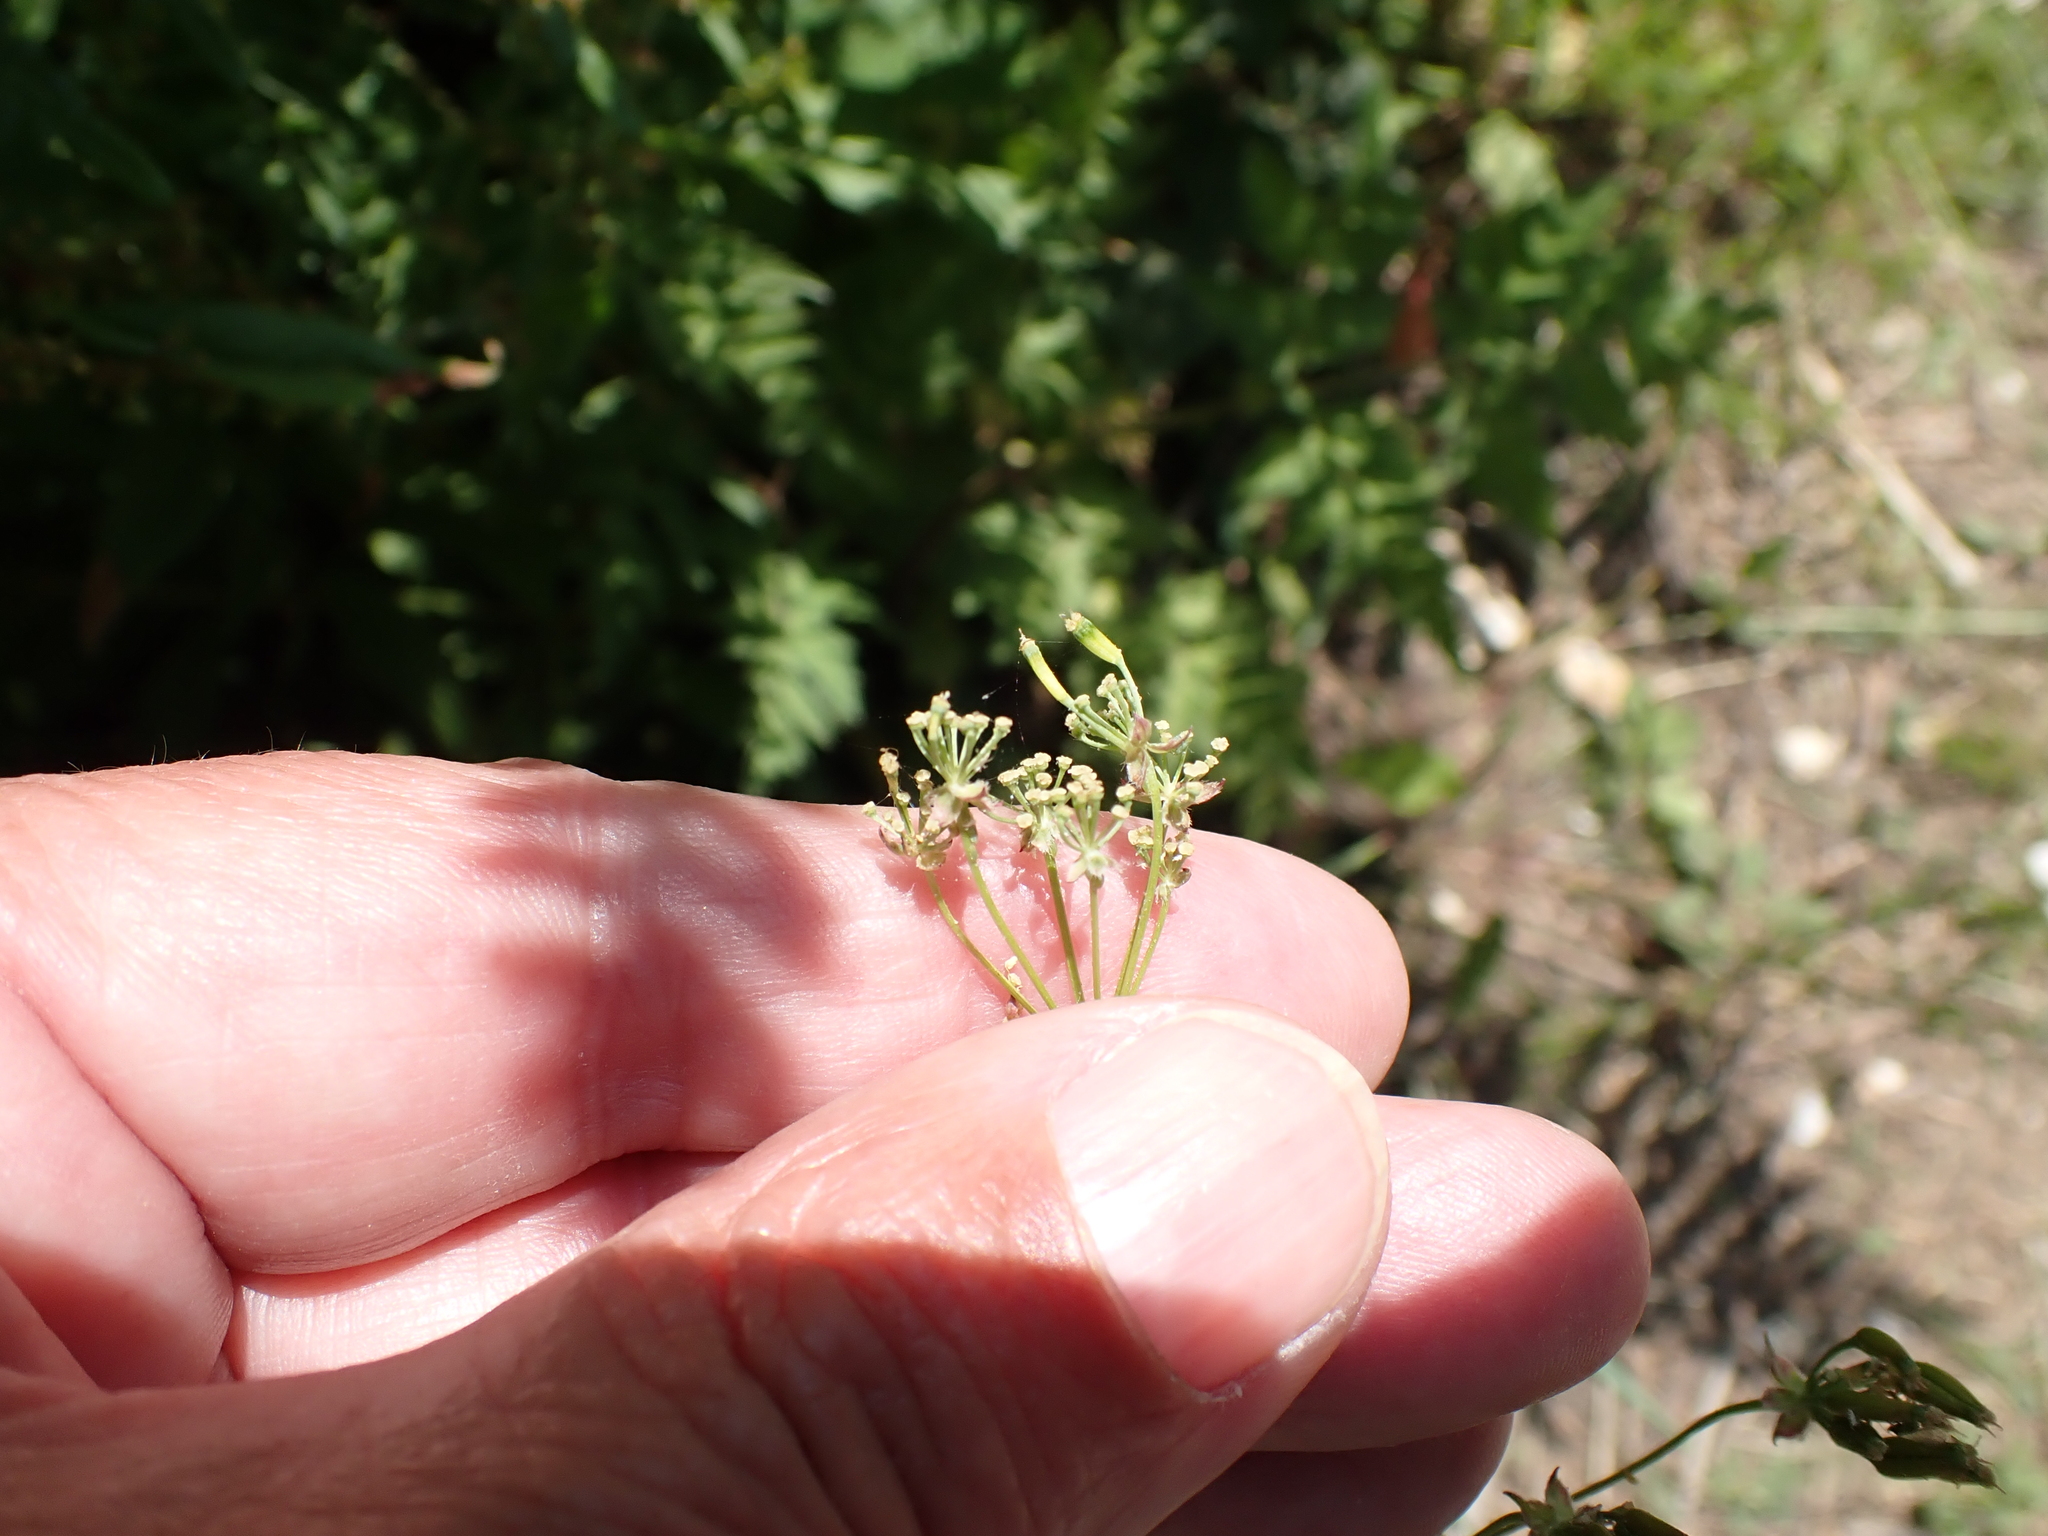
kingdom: Plantae
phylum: Tracheophyta
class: Magnoliopsida
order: Apiales
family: Apiaceae
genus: Anthriscus
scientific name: Anthriscus sylvestris
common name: Cow parsley
